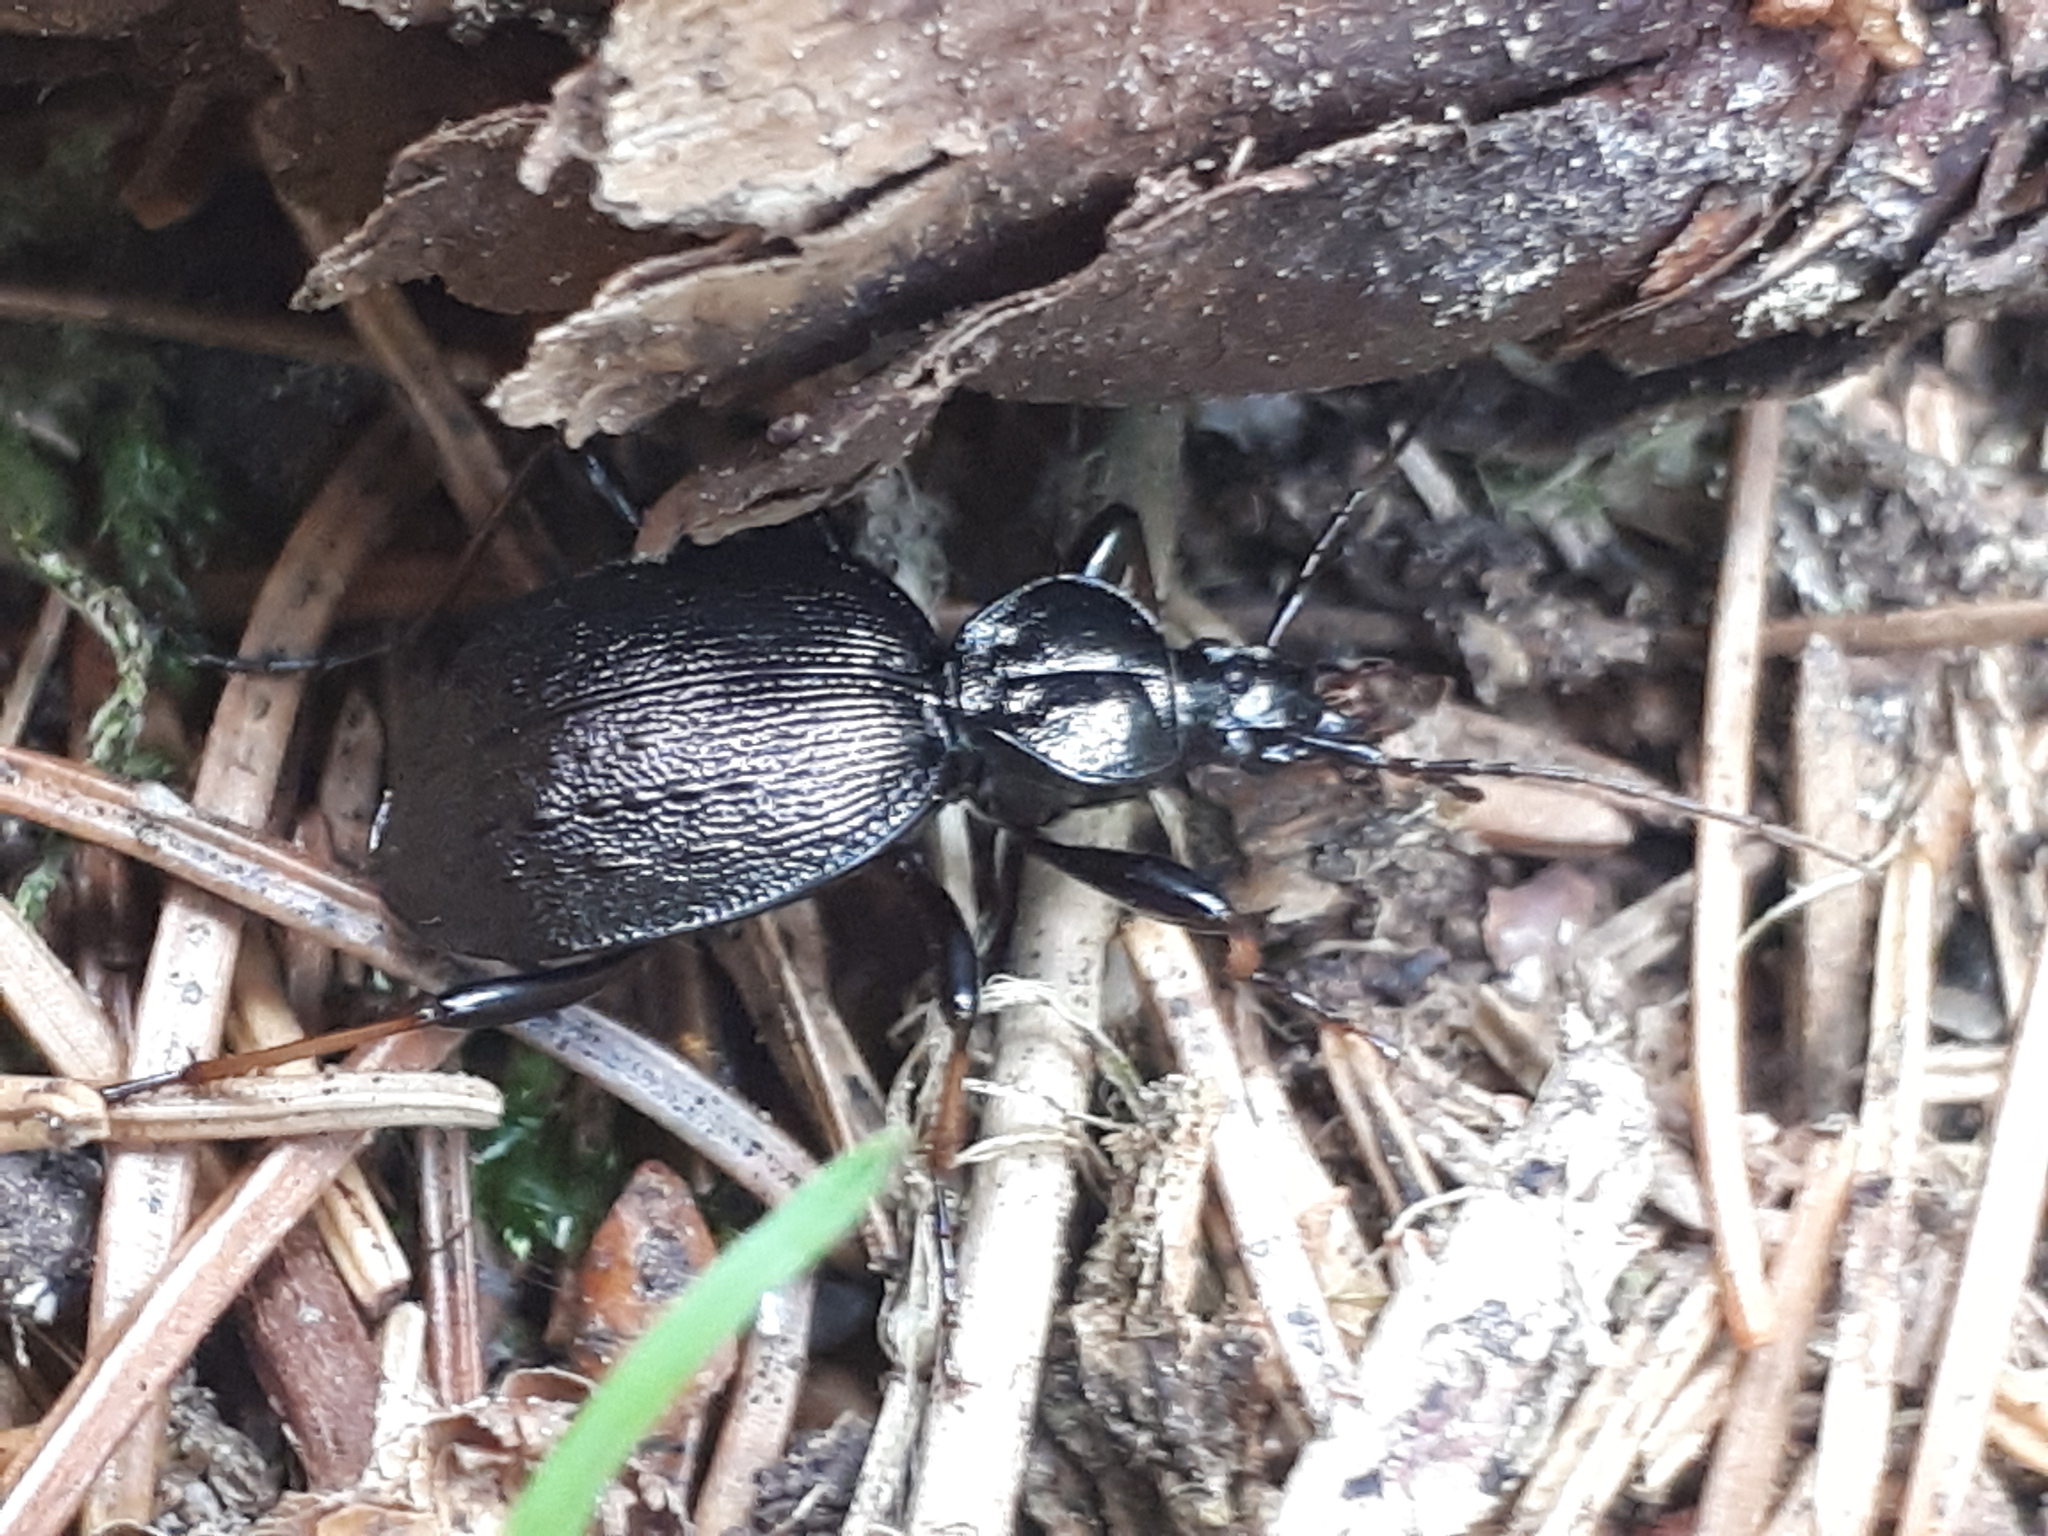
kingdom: Animalia
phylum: Arthropoda
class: Insecta
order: Coleoptera
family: Carabidae
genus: Cychrus
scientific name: Cychrus attenuatus
